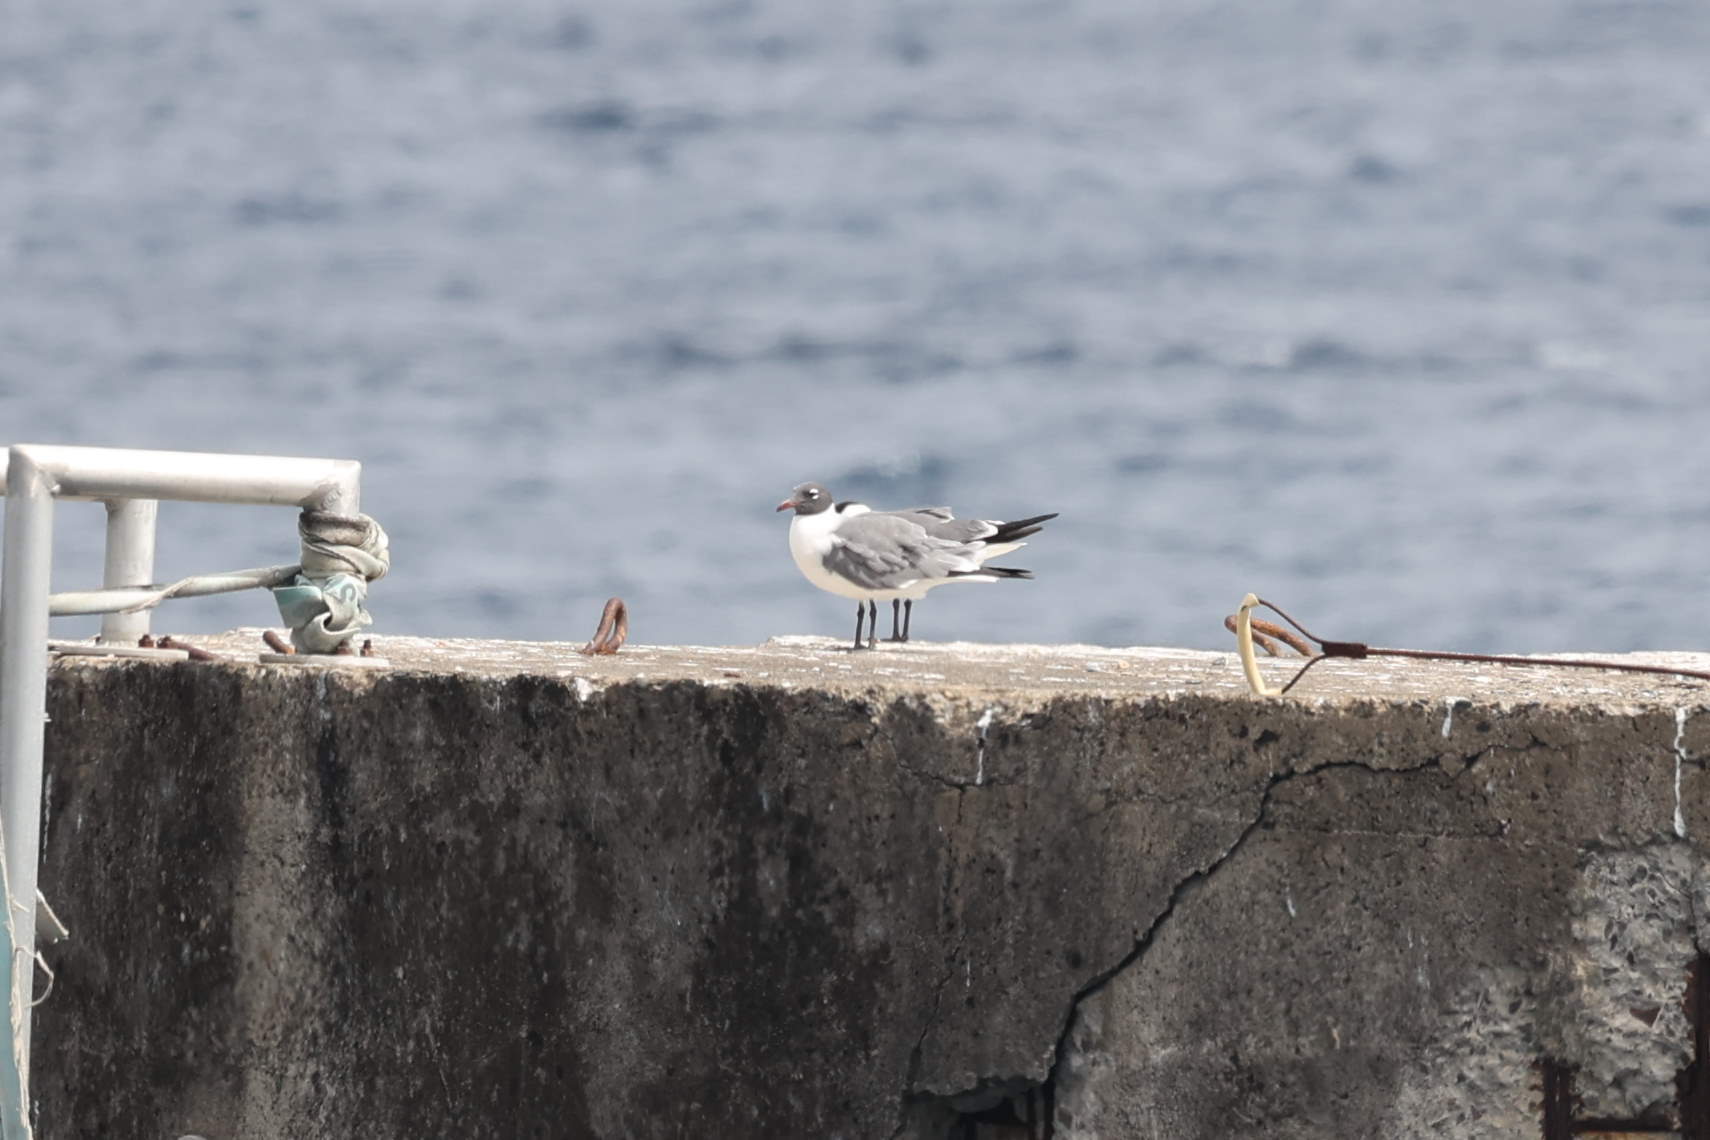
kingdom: Animalia
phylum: Chordata
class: Aves
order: Charadriiformes
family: Laridae
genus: Leucophaeus
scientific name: Leucophaeus atricilla
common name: Laughing gull
